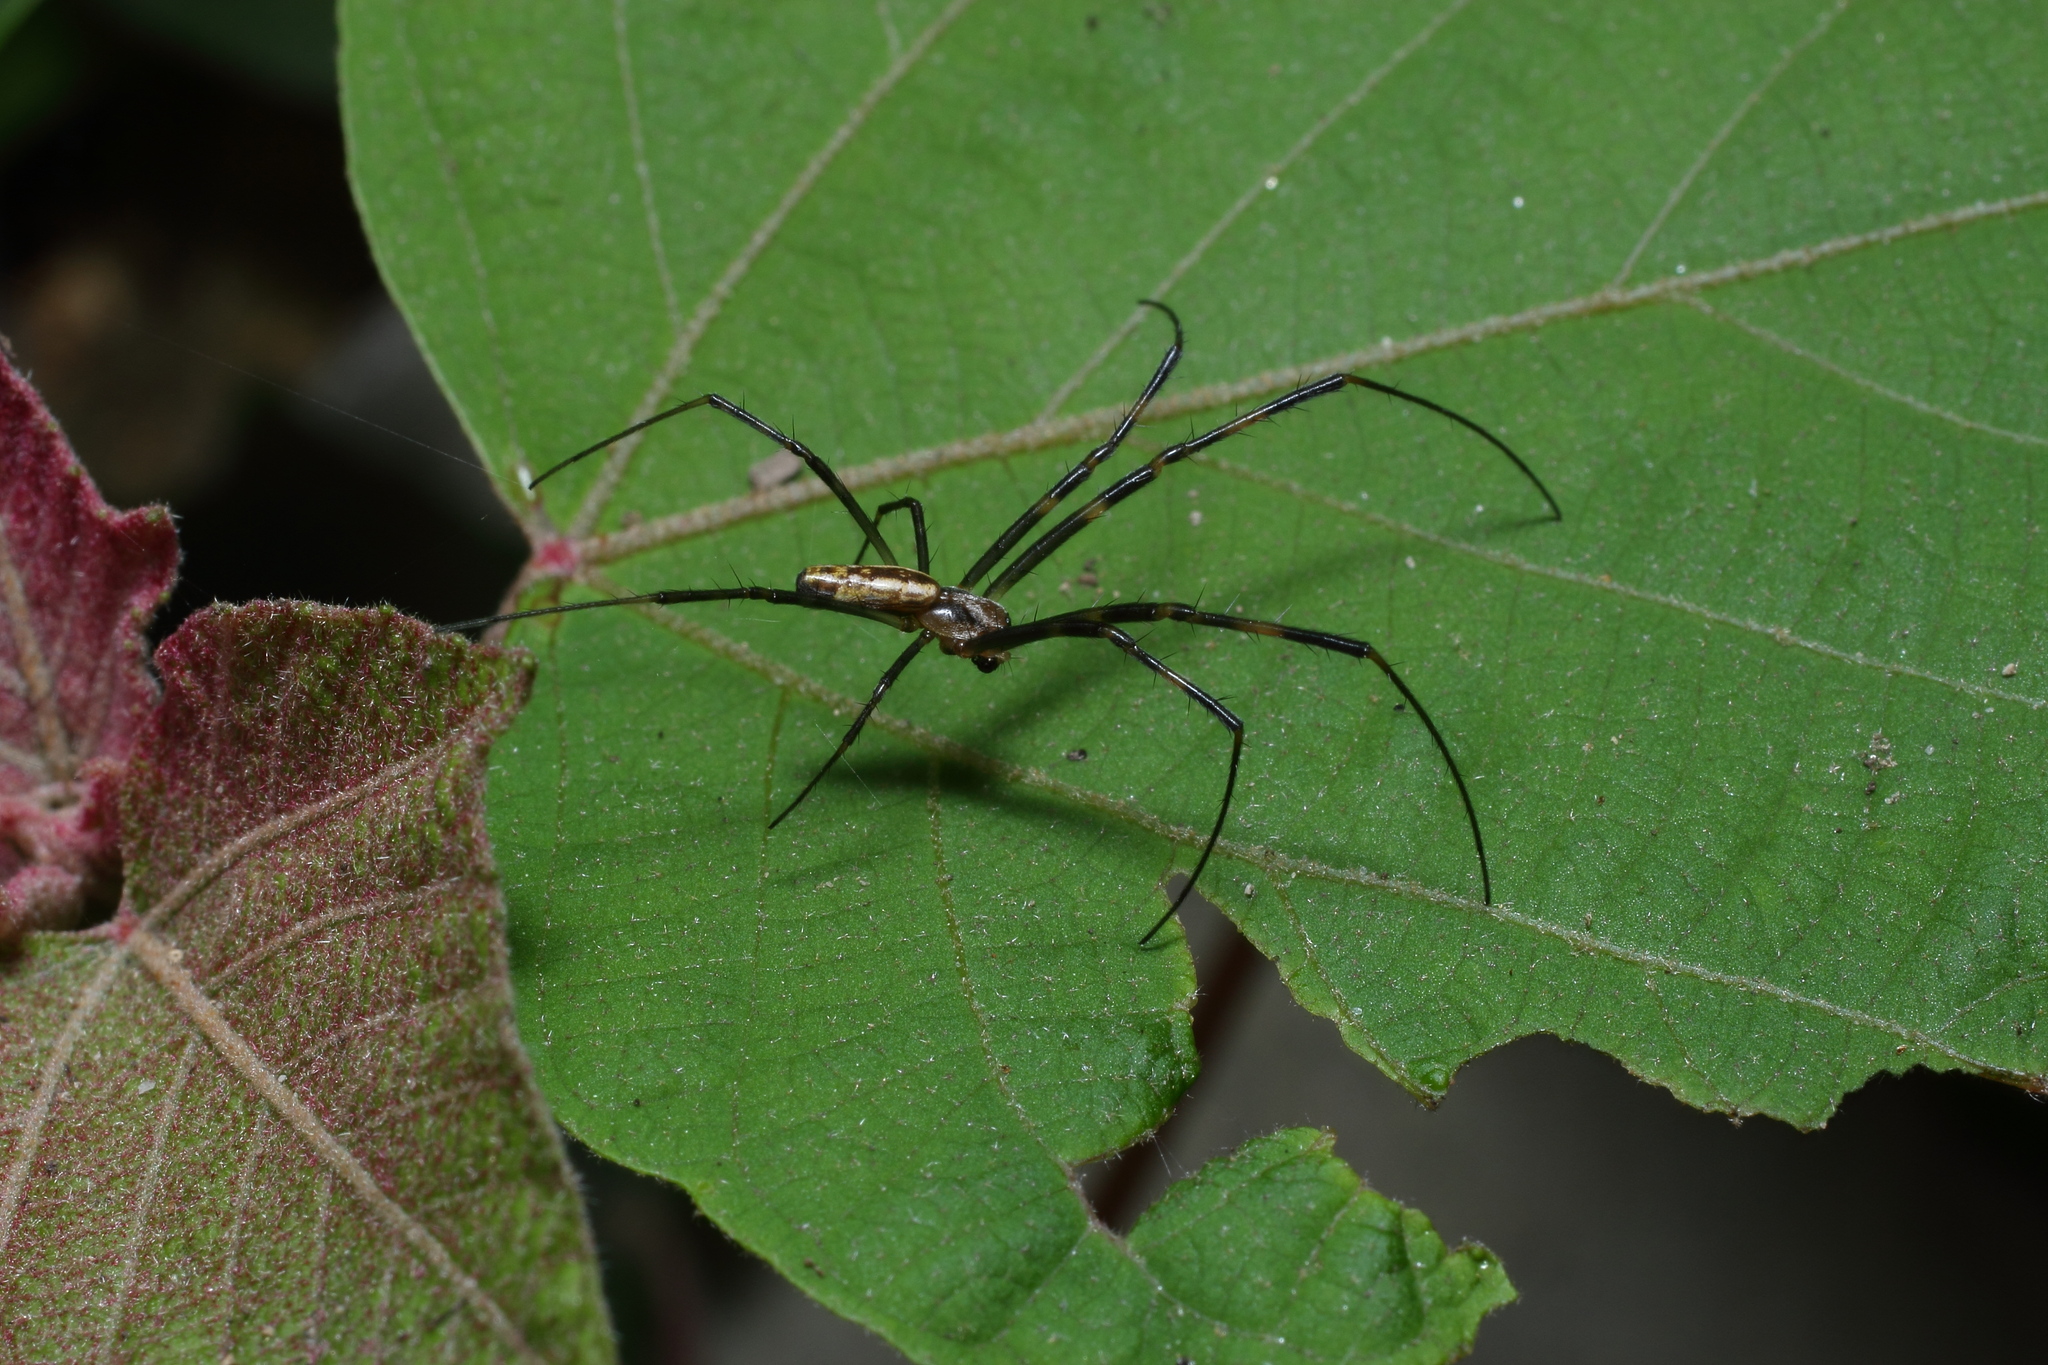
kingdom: Animalia
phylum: Arthropoda
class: Arachnida
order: Araneae
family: Araneidae
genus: Trichonephila
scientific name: Trichonephila clavata
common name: Jorō spider
